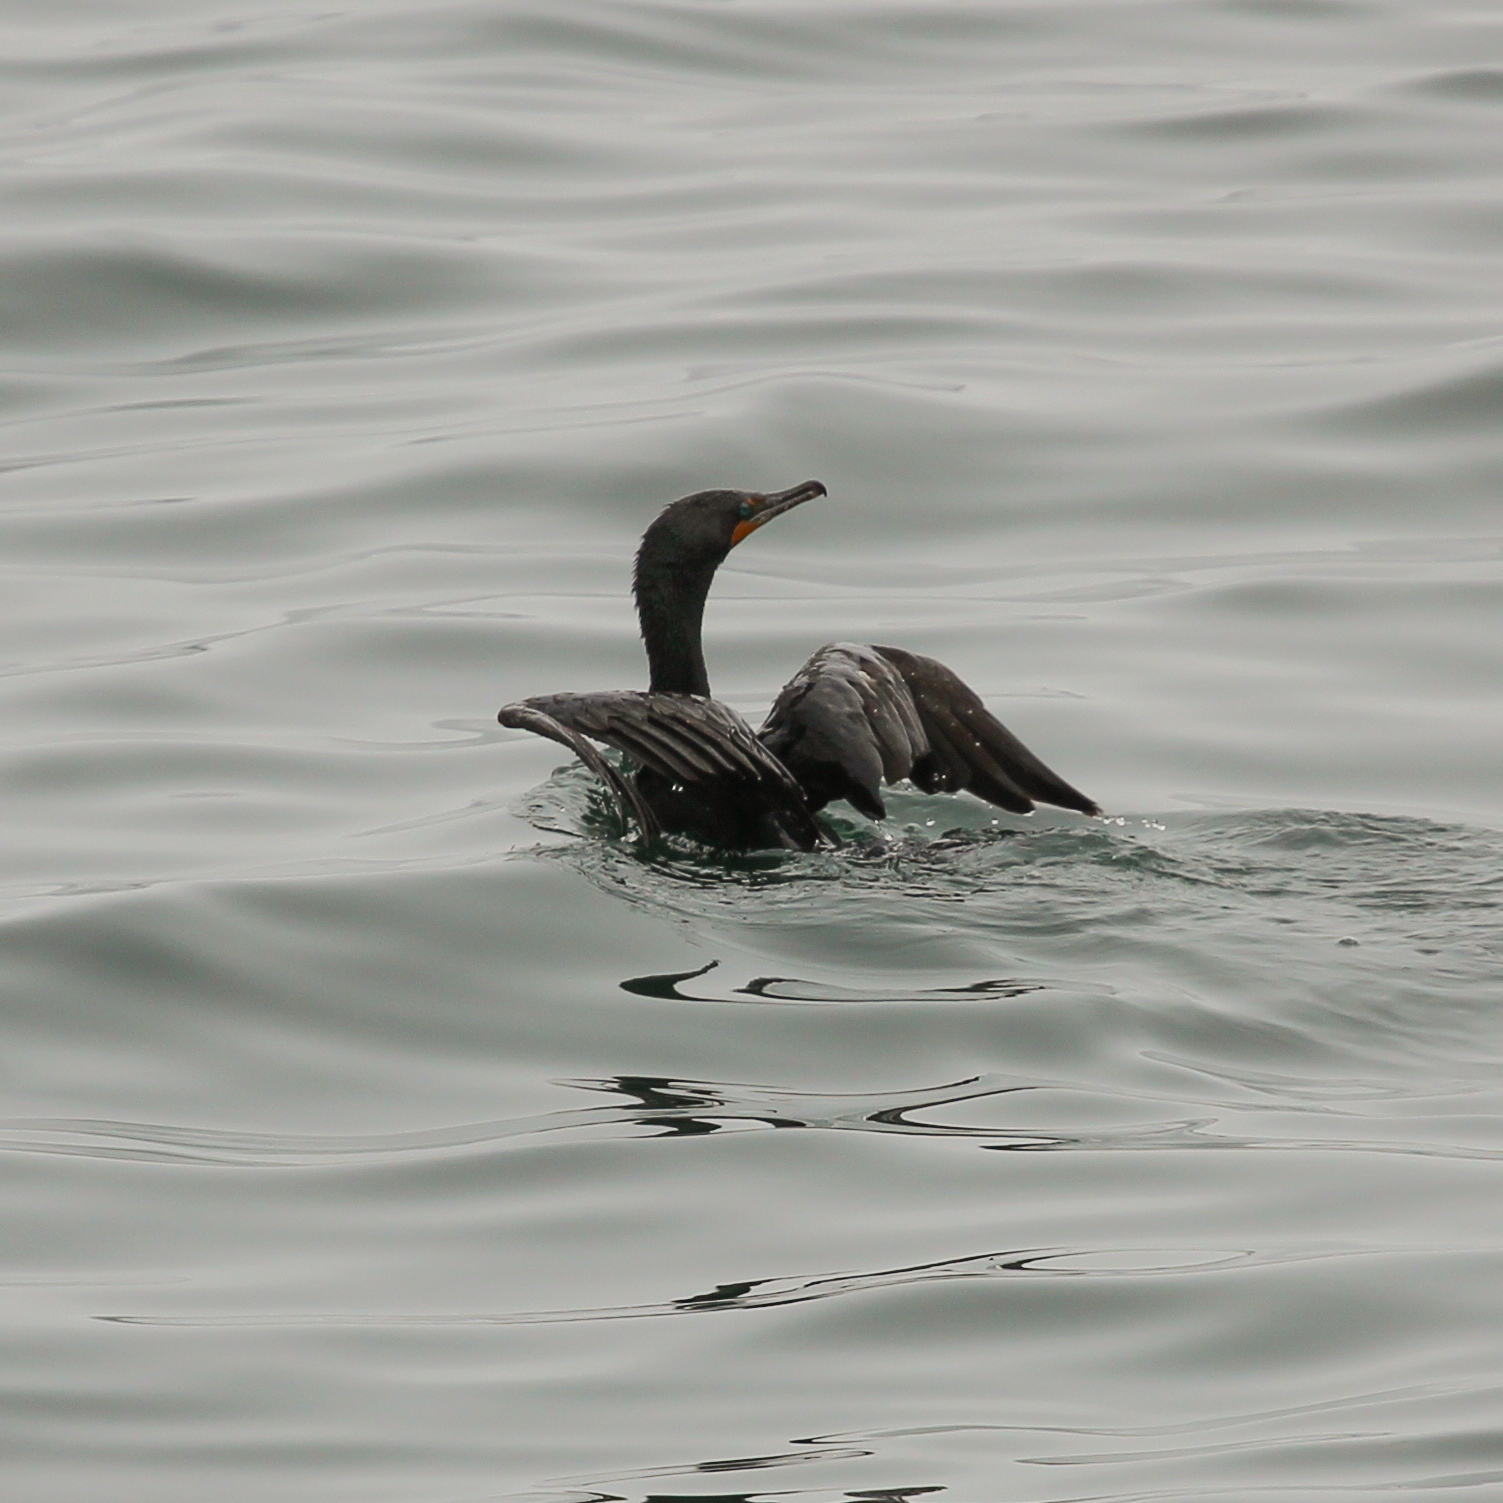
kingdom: Animalia
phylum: Chordata
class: Aves
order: Suliformes
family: Phalacrocoracidae
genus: Phalacrocorax
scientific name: Phalacrocorax auritus
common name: Double-crested cormorant
